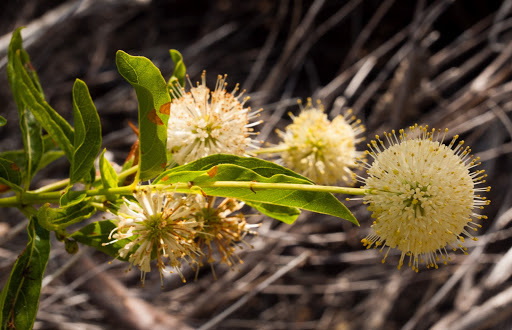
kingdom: Plantae
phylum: Tracheophyta
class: Magnoliopsida
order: Gentianales
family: Rubiaceae
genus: Cephalanthus
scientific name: Cephalanthus occidentalis
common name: Button-willow
